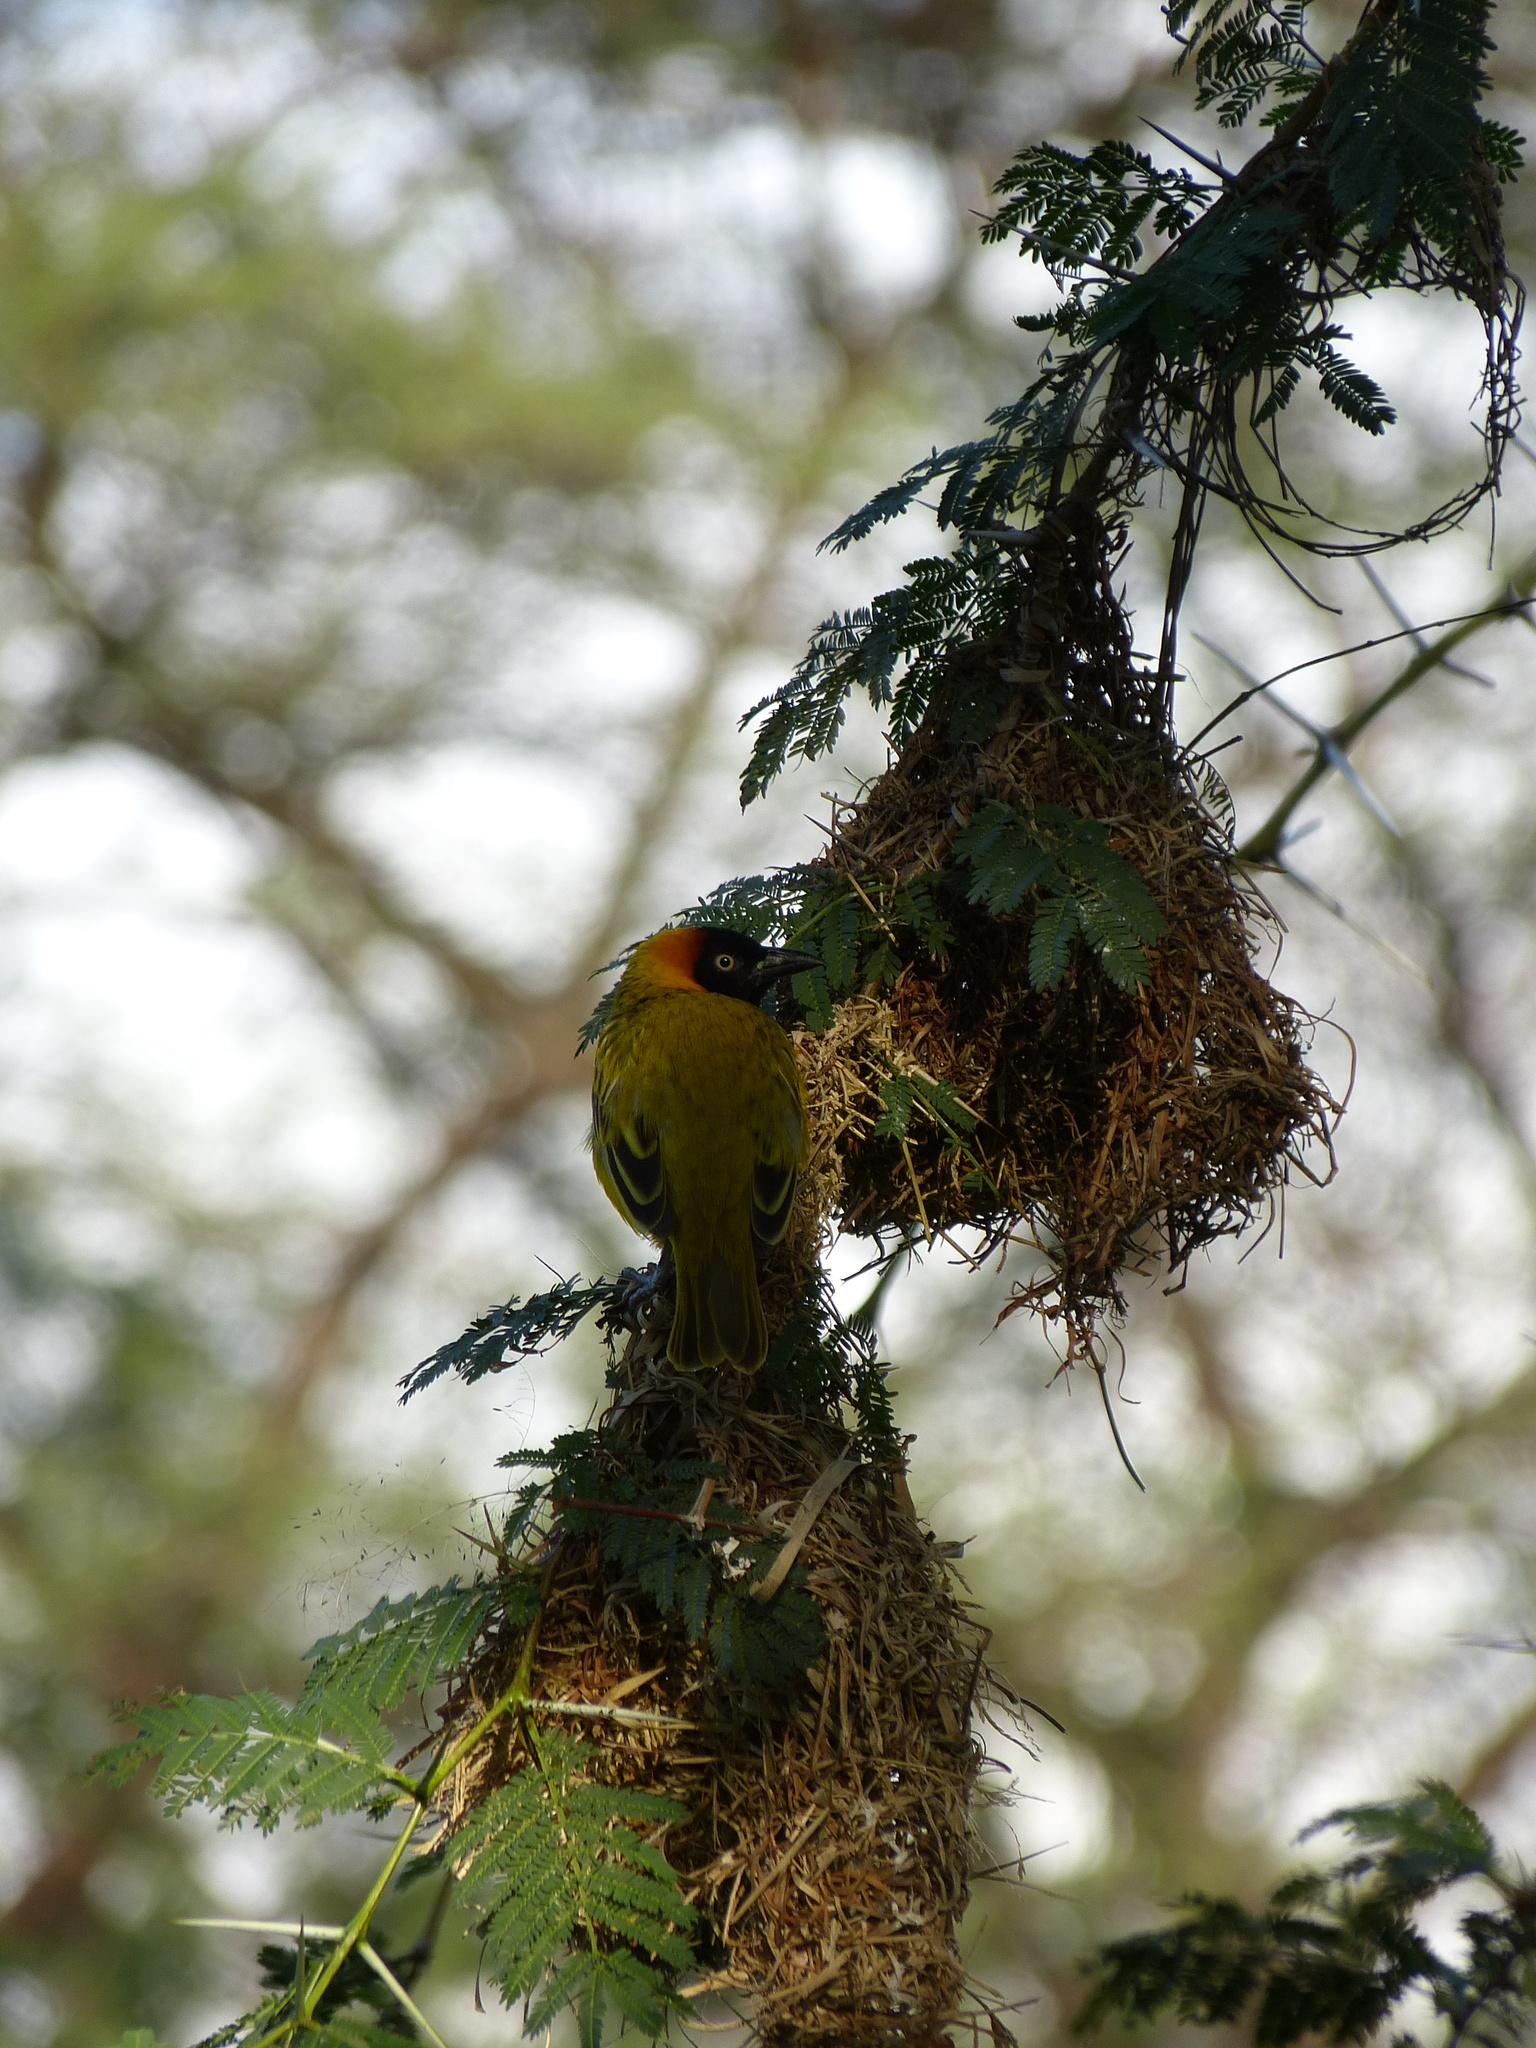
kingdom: Animalia
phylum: Chordata
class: Aves
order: Passeriformes
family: Ploceidae
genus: Ploceus
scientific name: Ploceus intermedius
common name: Lesser masked weaver
